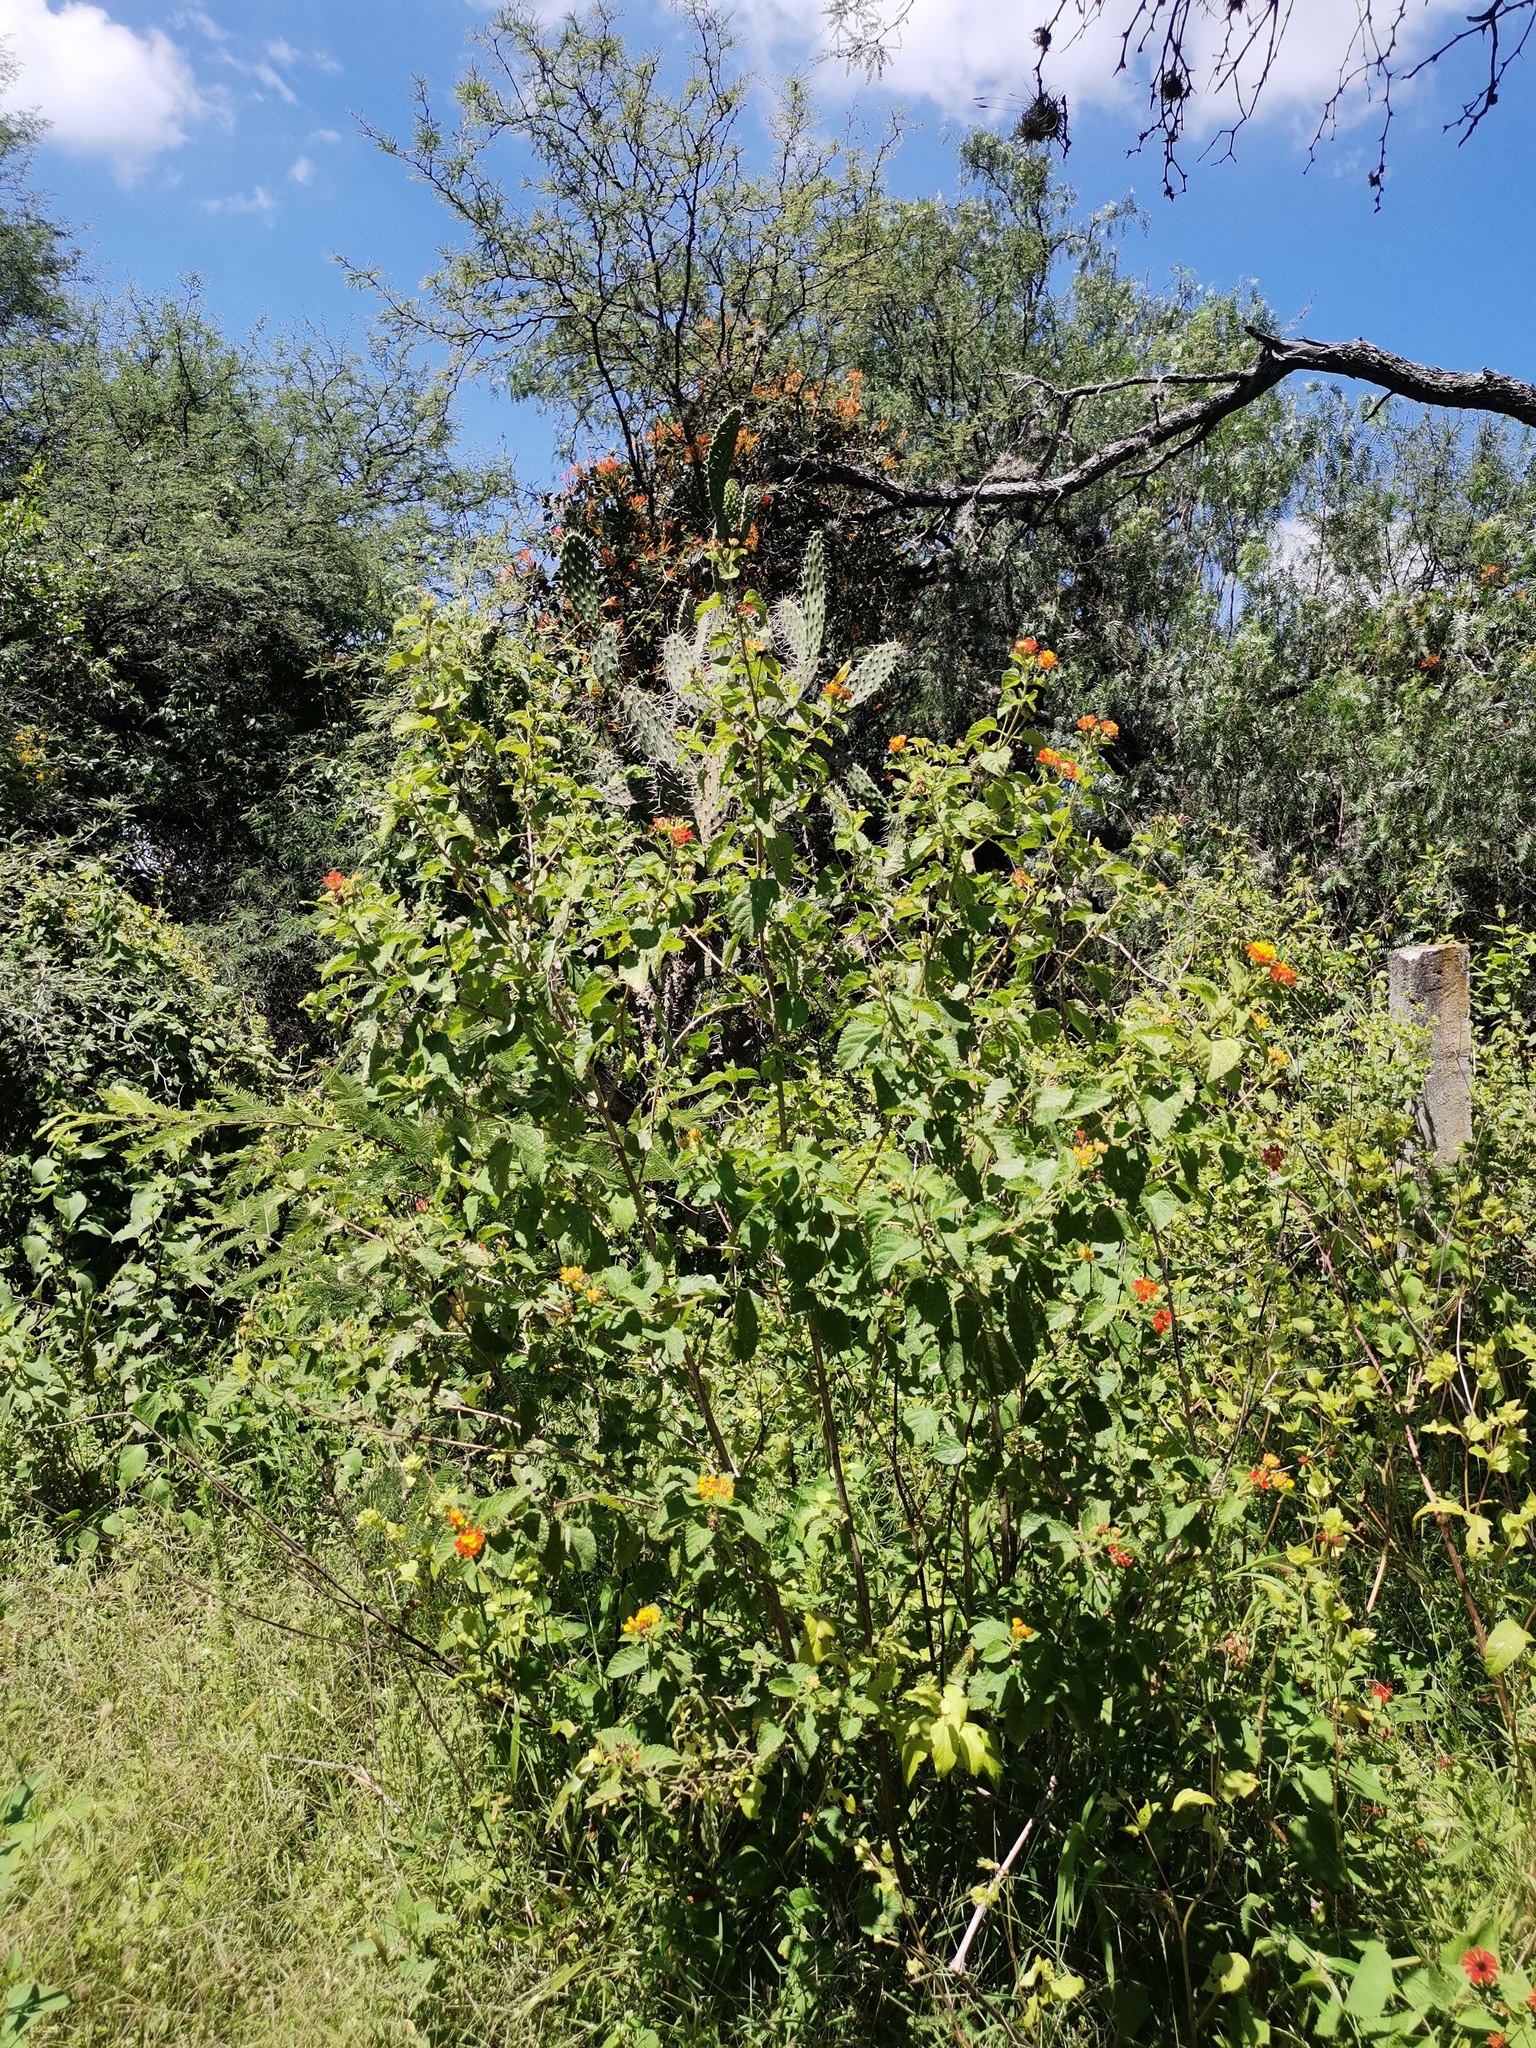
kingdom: Plantae
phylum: Tracheophyta
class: Magnoliopsida
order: Lamiales
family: Verbenaceae
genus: Lantana
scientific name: Lantana camara
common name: Lantana
